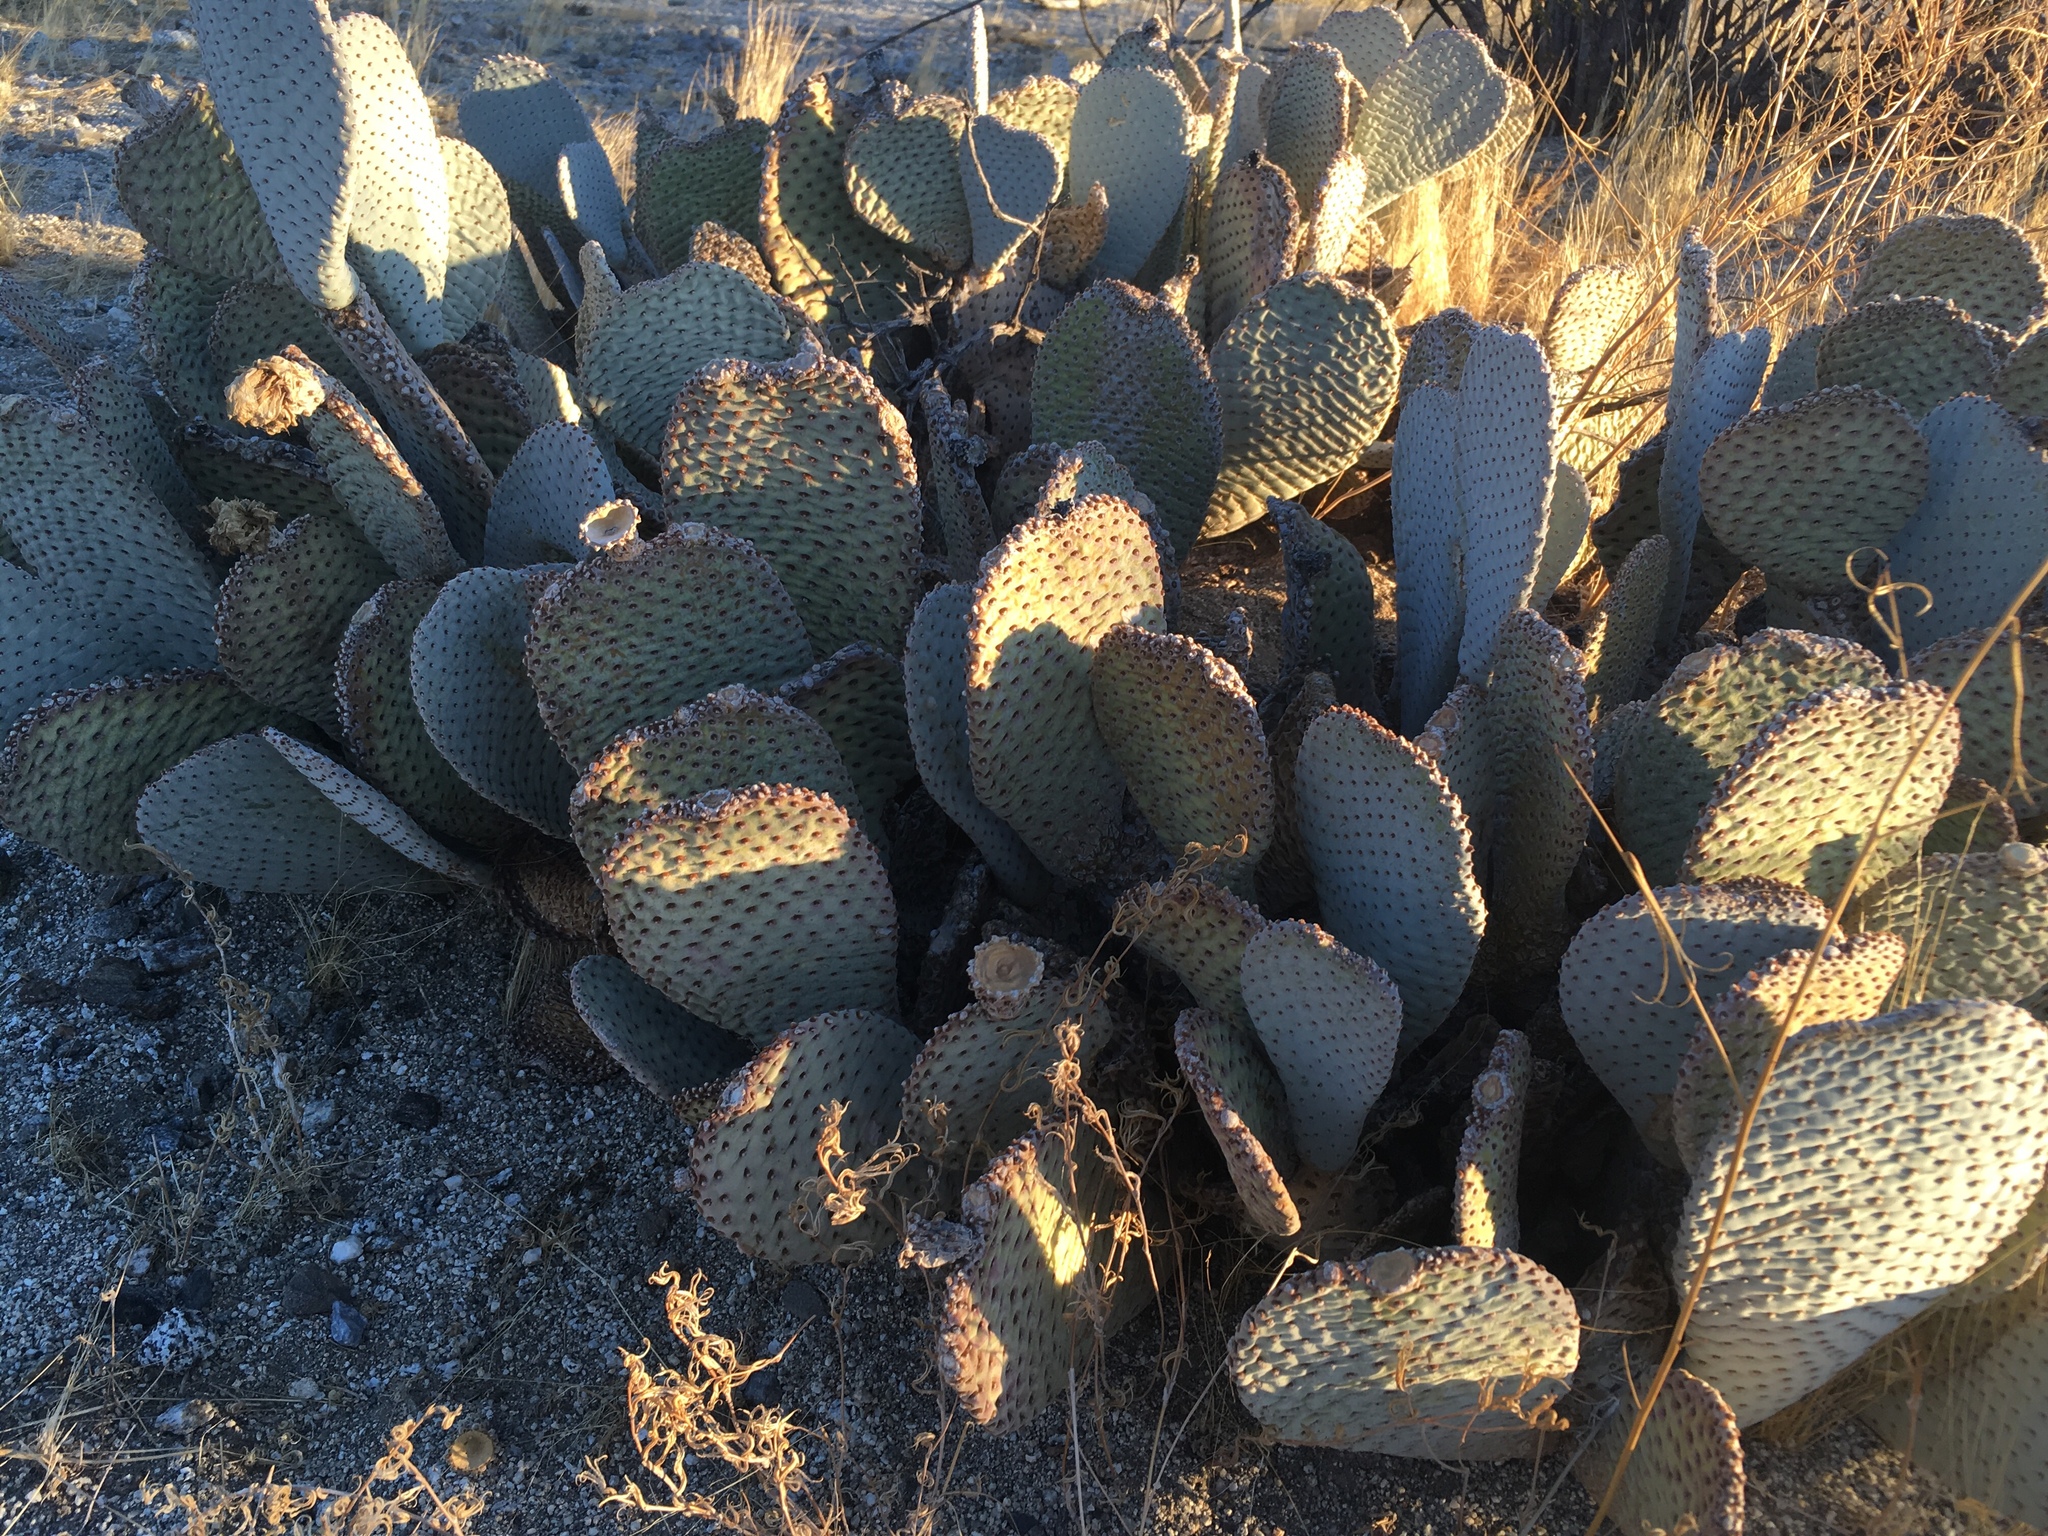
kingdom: Plantae
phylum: Tracheophyta
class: Magnoliopsida
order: Caryophyllales
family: Cactaceae
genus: Opuntia
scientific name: Opuntia basilaris
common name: Beavertail prickly-pear
